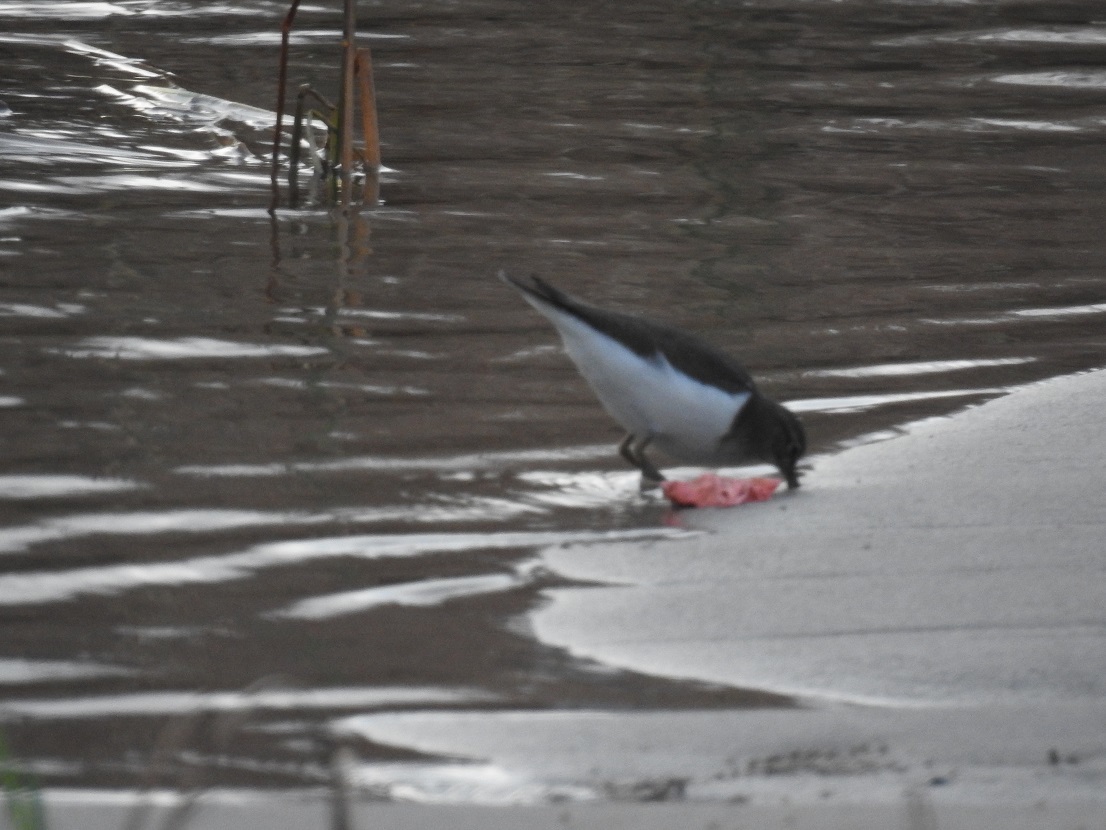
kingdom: Animalia
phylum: Chordata
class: Aves
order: Charadriiformes
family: Scolopacidae
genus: Actitis
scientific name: Actitis hypoleucos
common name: Common sandpiper
